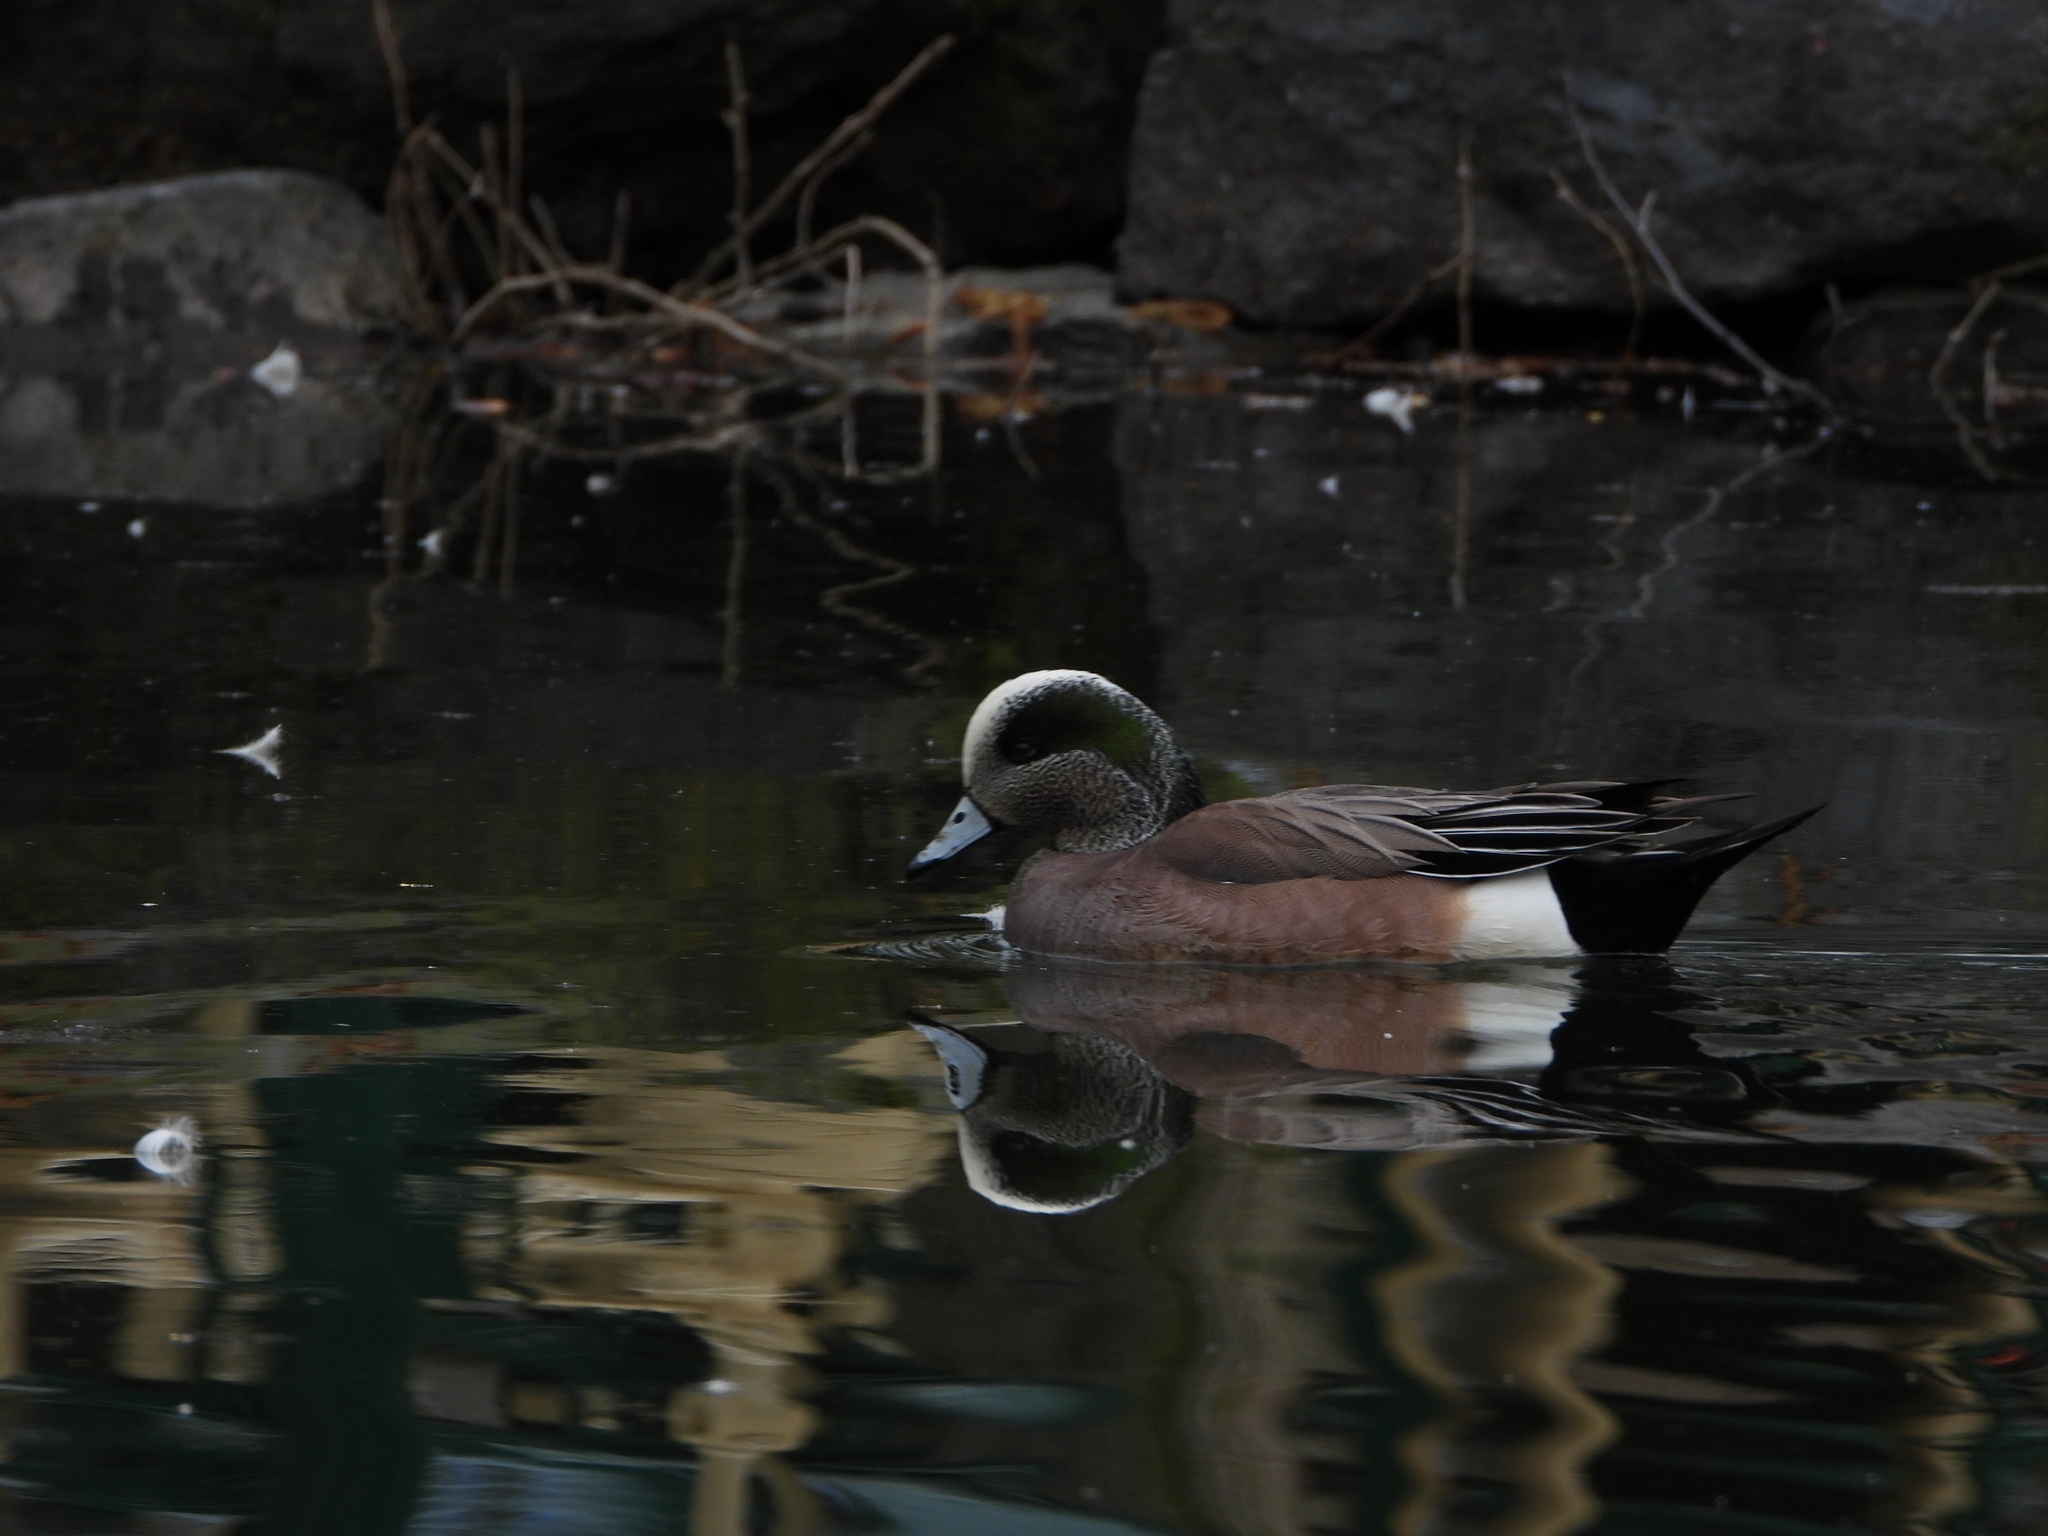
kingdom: Animalia
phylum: Chordata
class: Aves
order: Anseriformes
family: Anatidae
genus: Mareca
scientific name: Mareca americana
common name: American wigeon
